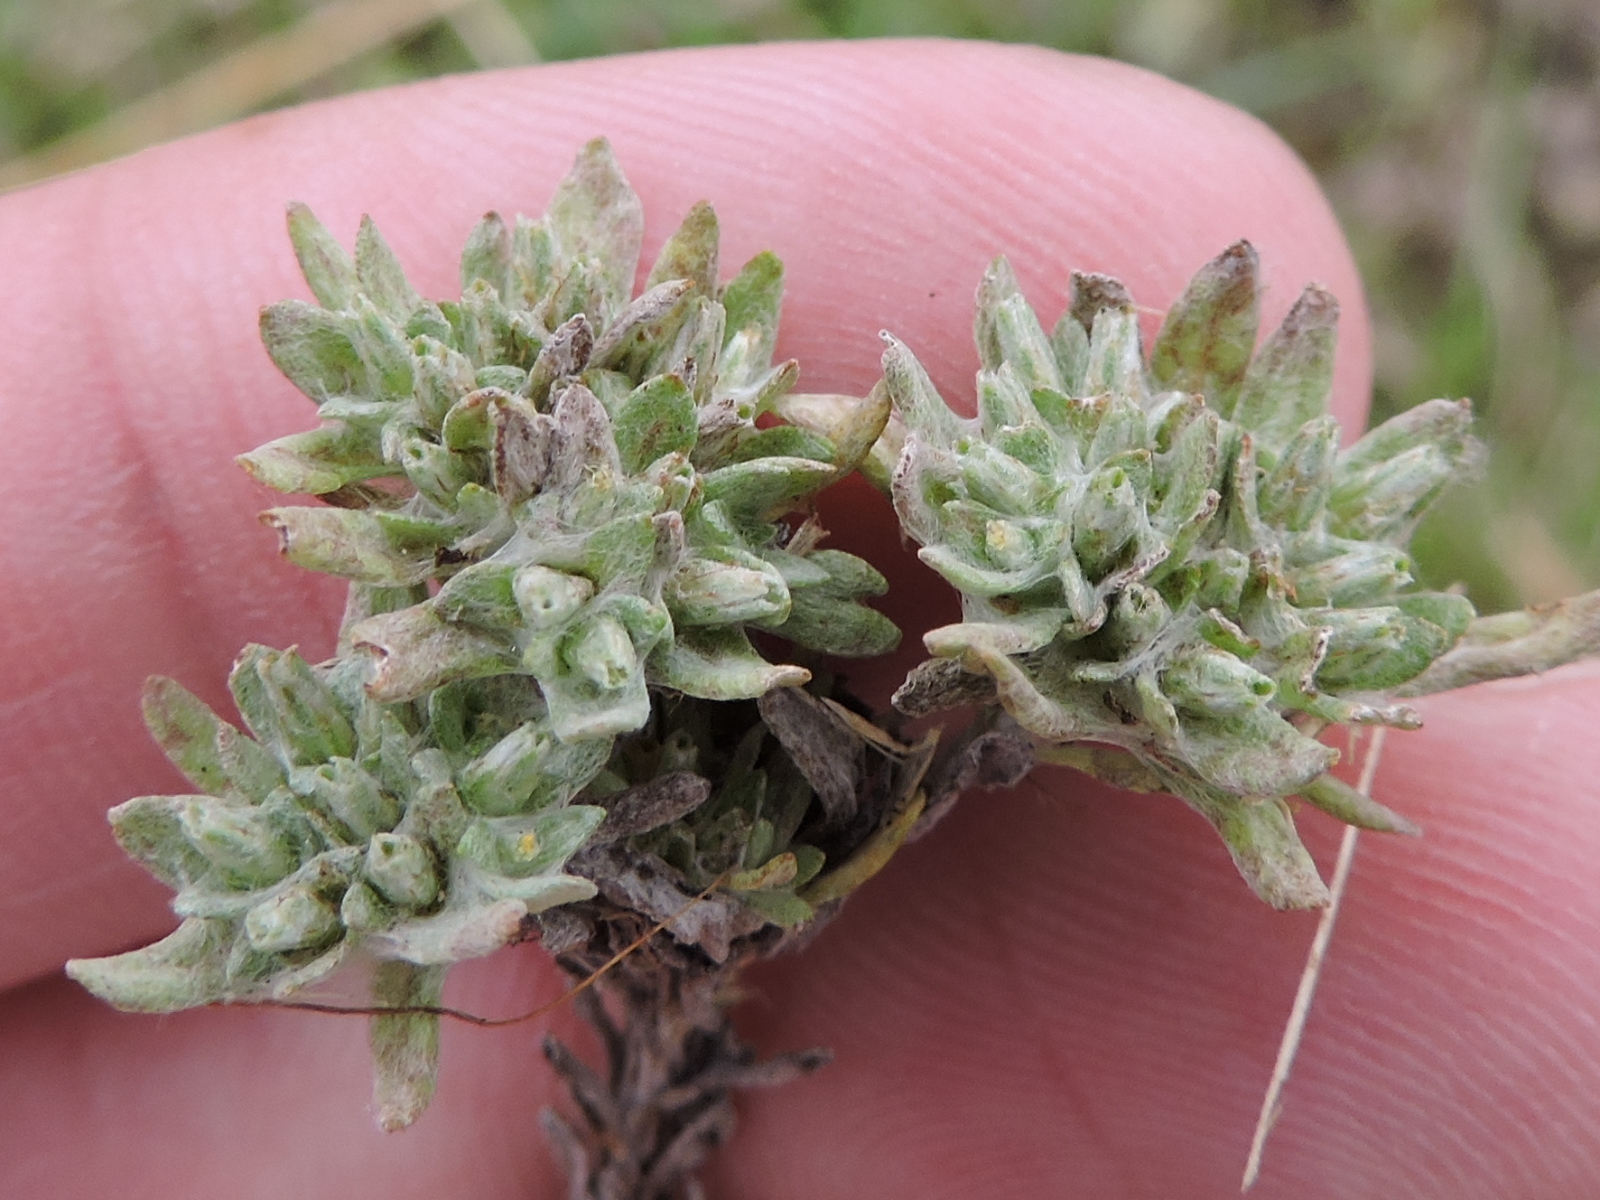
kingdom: Plantae
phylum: Tracheophyta
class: Magnoliopsida
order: Asterales
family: Asteraceae
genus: Diaperia
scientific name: Diaperia prolifera
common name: Big-head rabbit-tobacco
